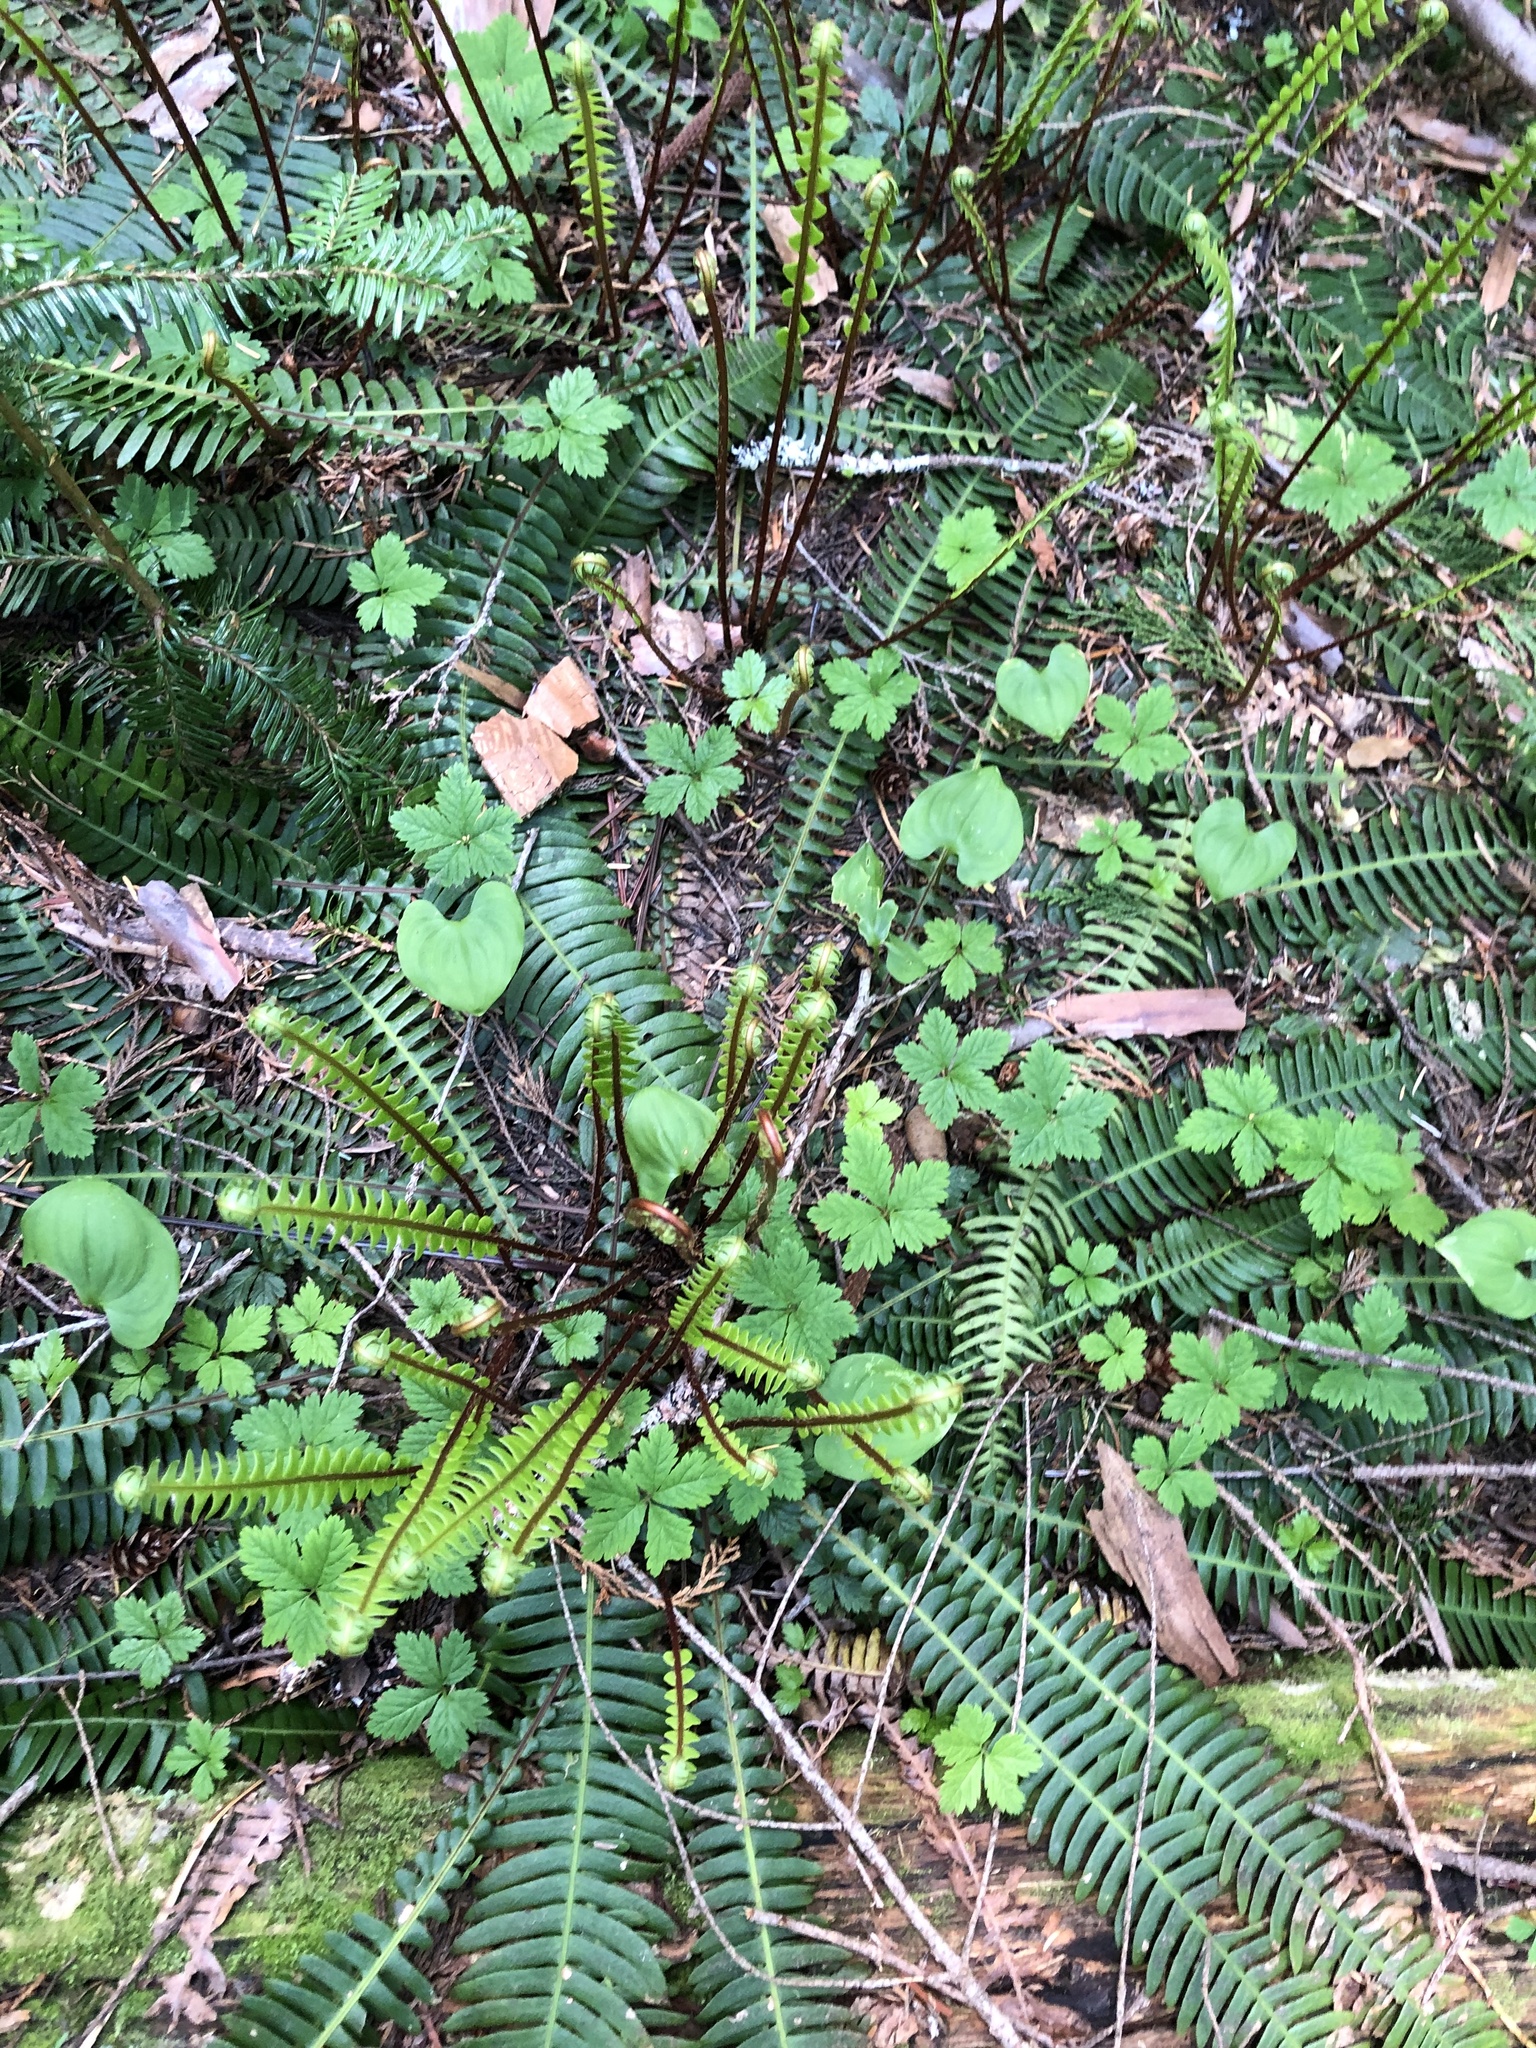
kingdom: Plantae
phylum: Tracheophyta
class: Polypodiopsida
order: Polypodiales
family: Blechnaceae
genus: Struthiopteris
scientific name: Struthiopteris spicant
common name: Deer fern
